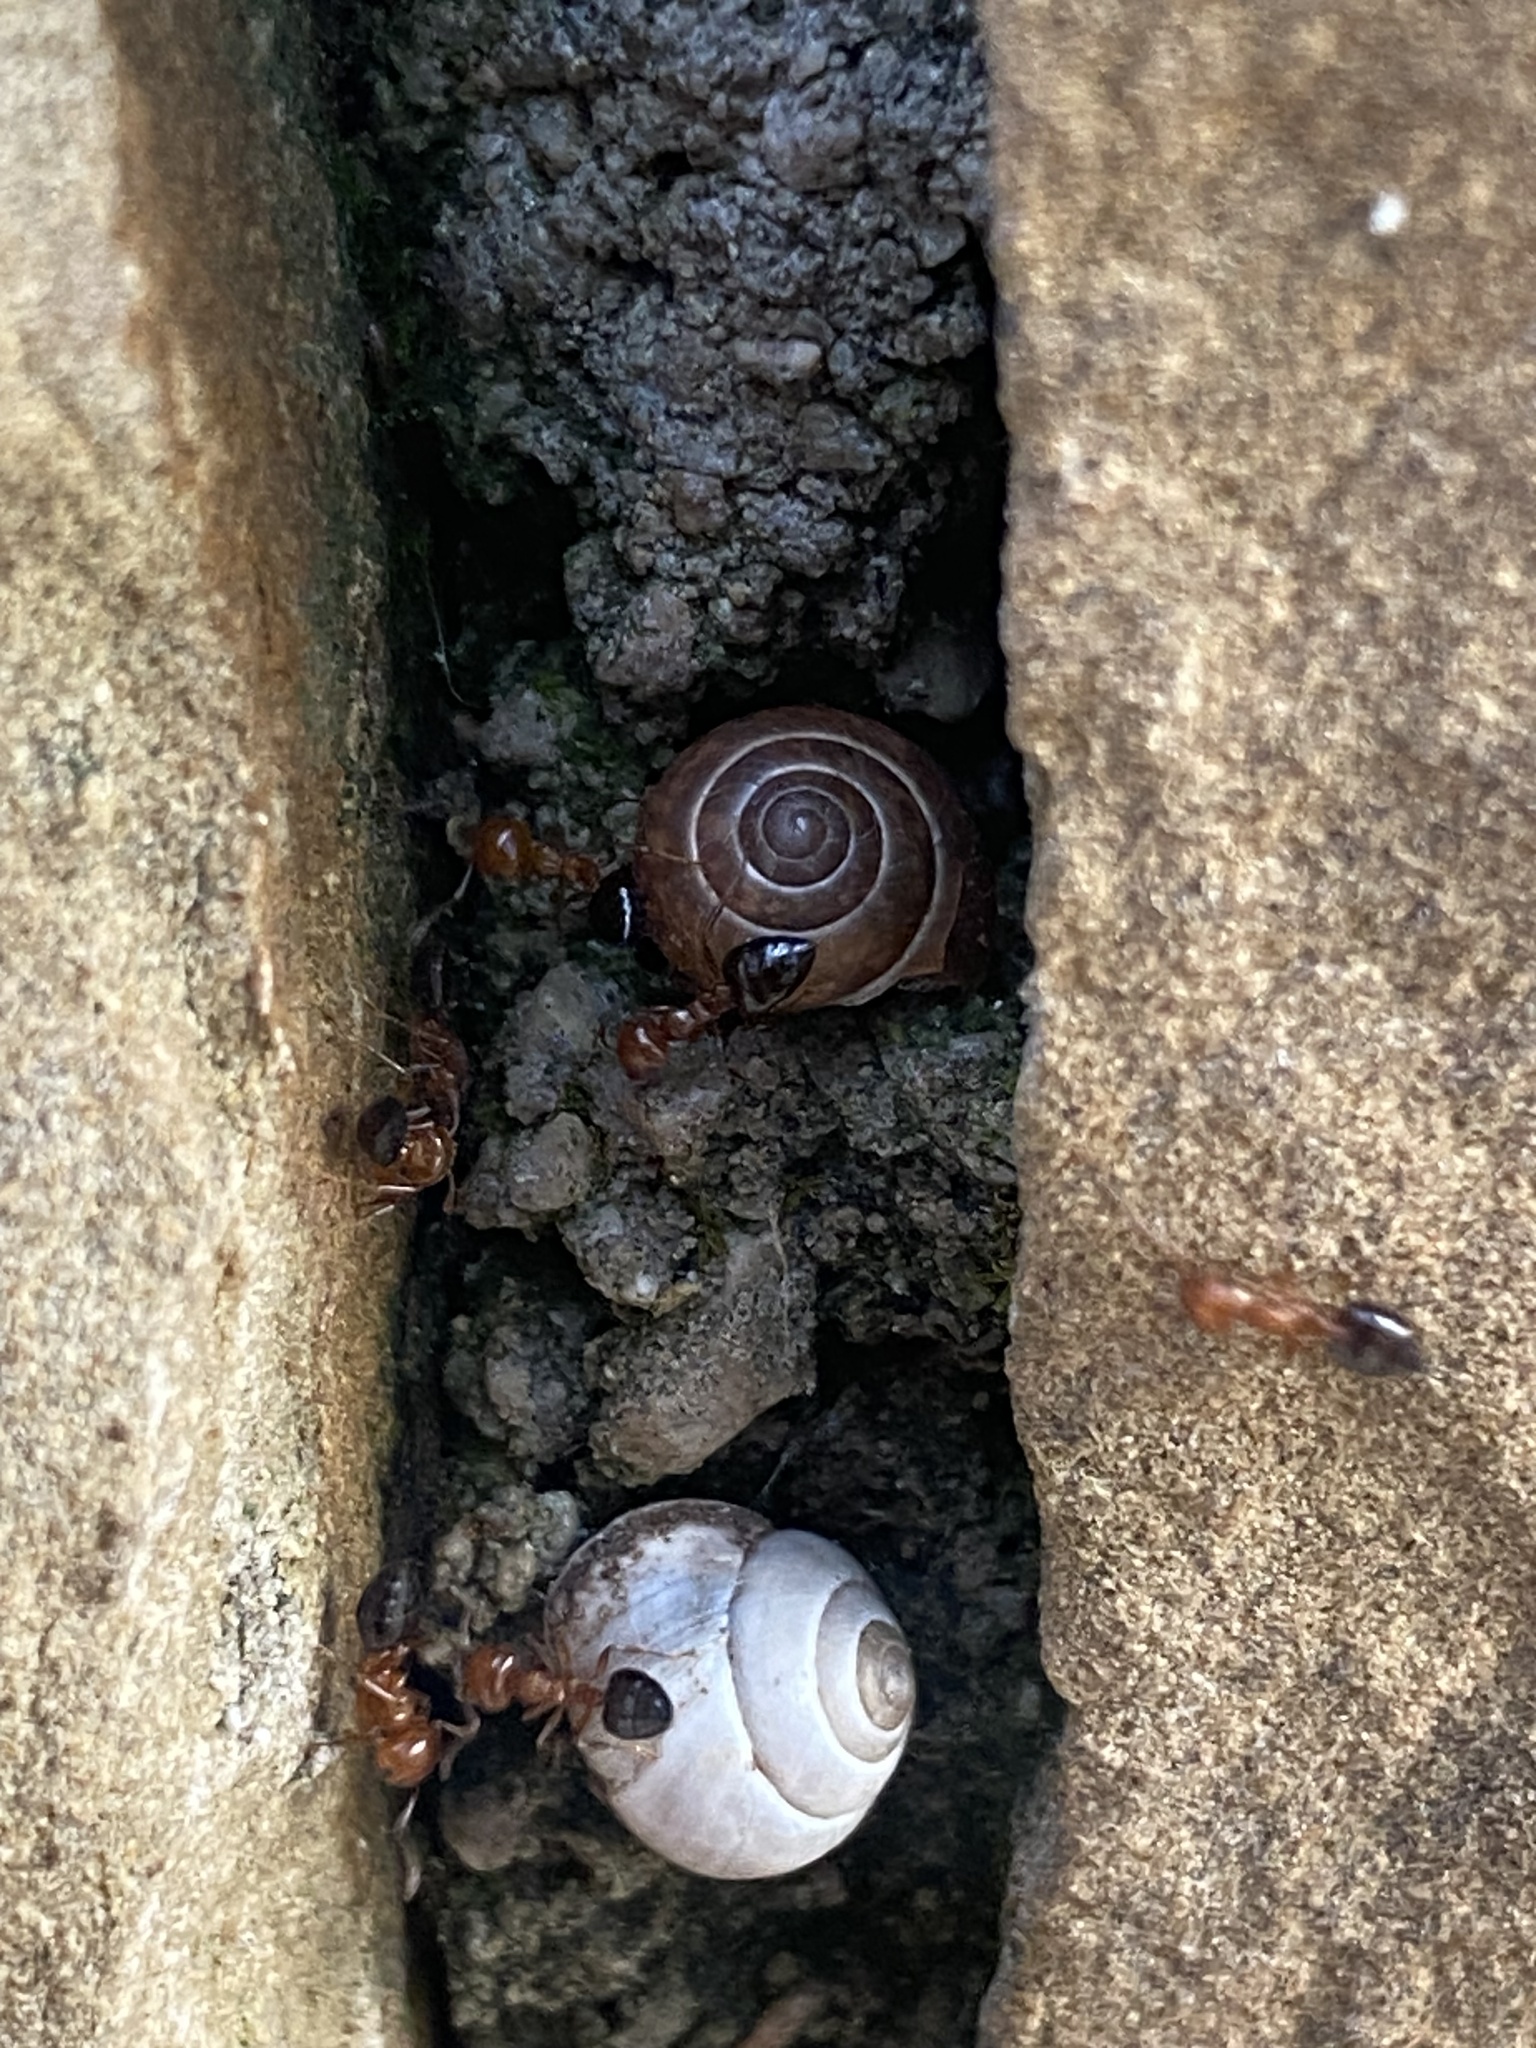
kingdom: Animalia
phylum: Mollusca
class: Gastropoda
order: Cycloneritida
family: Helicinidae
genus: Helicina
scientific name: Helicina orbiculata
